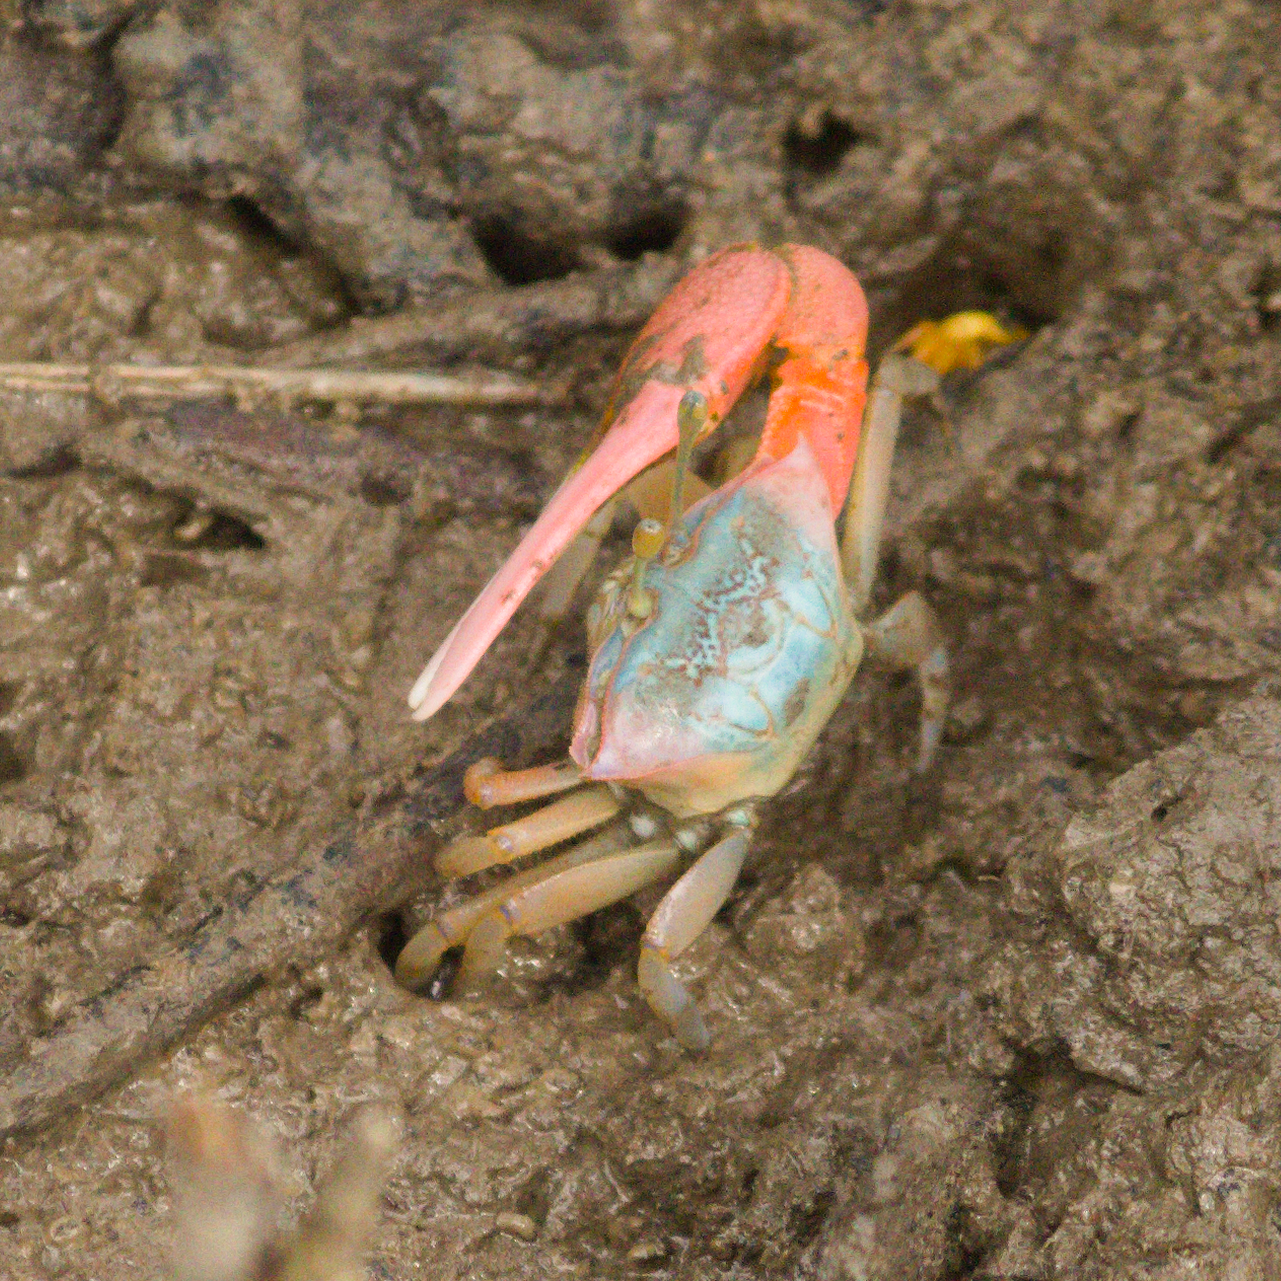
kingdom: Animalia
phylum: Arthropoda
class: Malacostraca
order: Decapoda
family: Ocypodidae
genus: Tubuca
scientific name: Tubuca rosea
